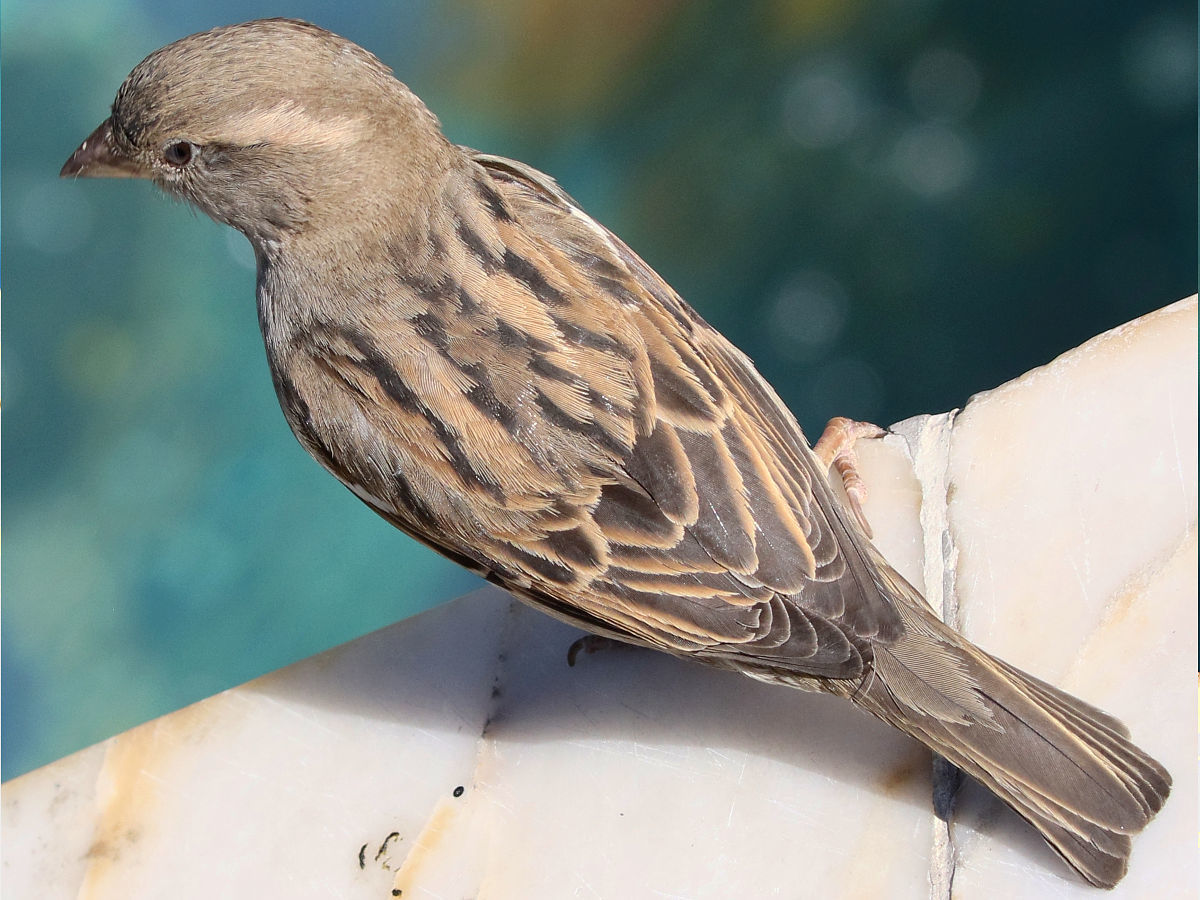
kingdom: Animalia
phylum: Chordata
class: Aves
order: Passeriformes
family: Passeridae
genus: Passer
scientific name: Passer domesticus
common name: House sparrow
